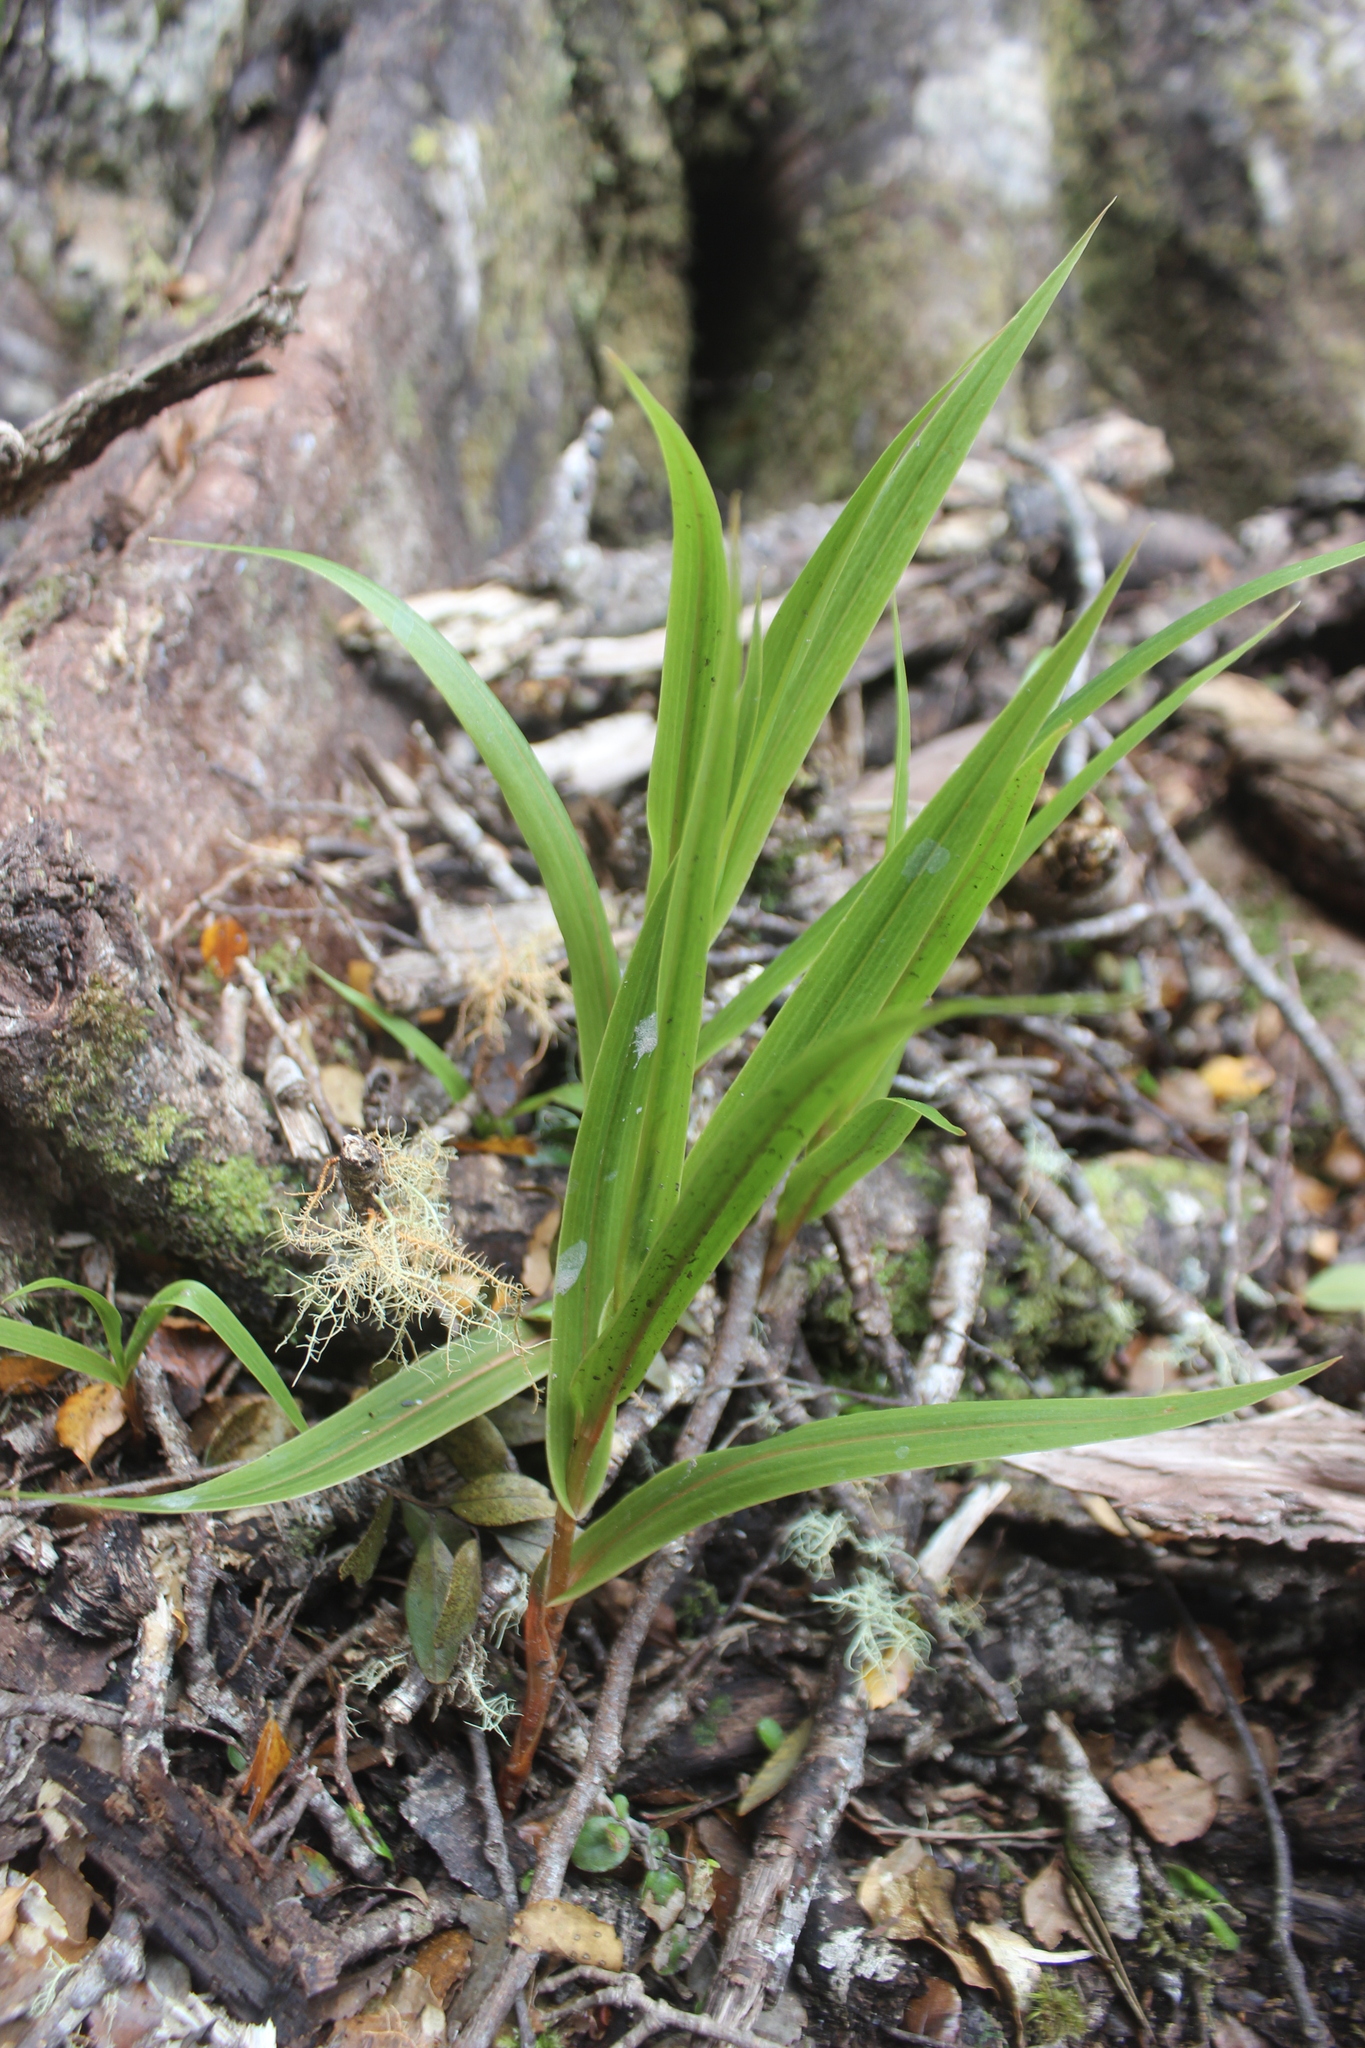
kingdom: Plantae
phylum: Tracheophyta
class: Liliopsida
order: Asparagales
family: Orchidaceae
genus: Pterostylis
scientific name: Pterostylis cardiostigma
